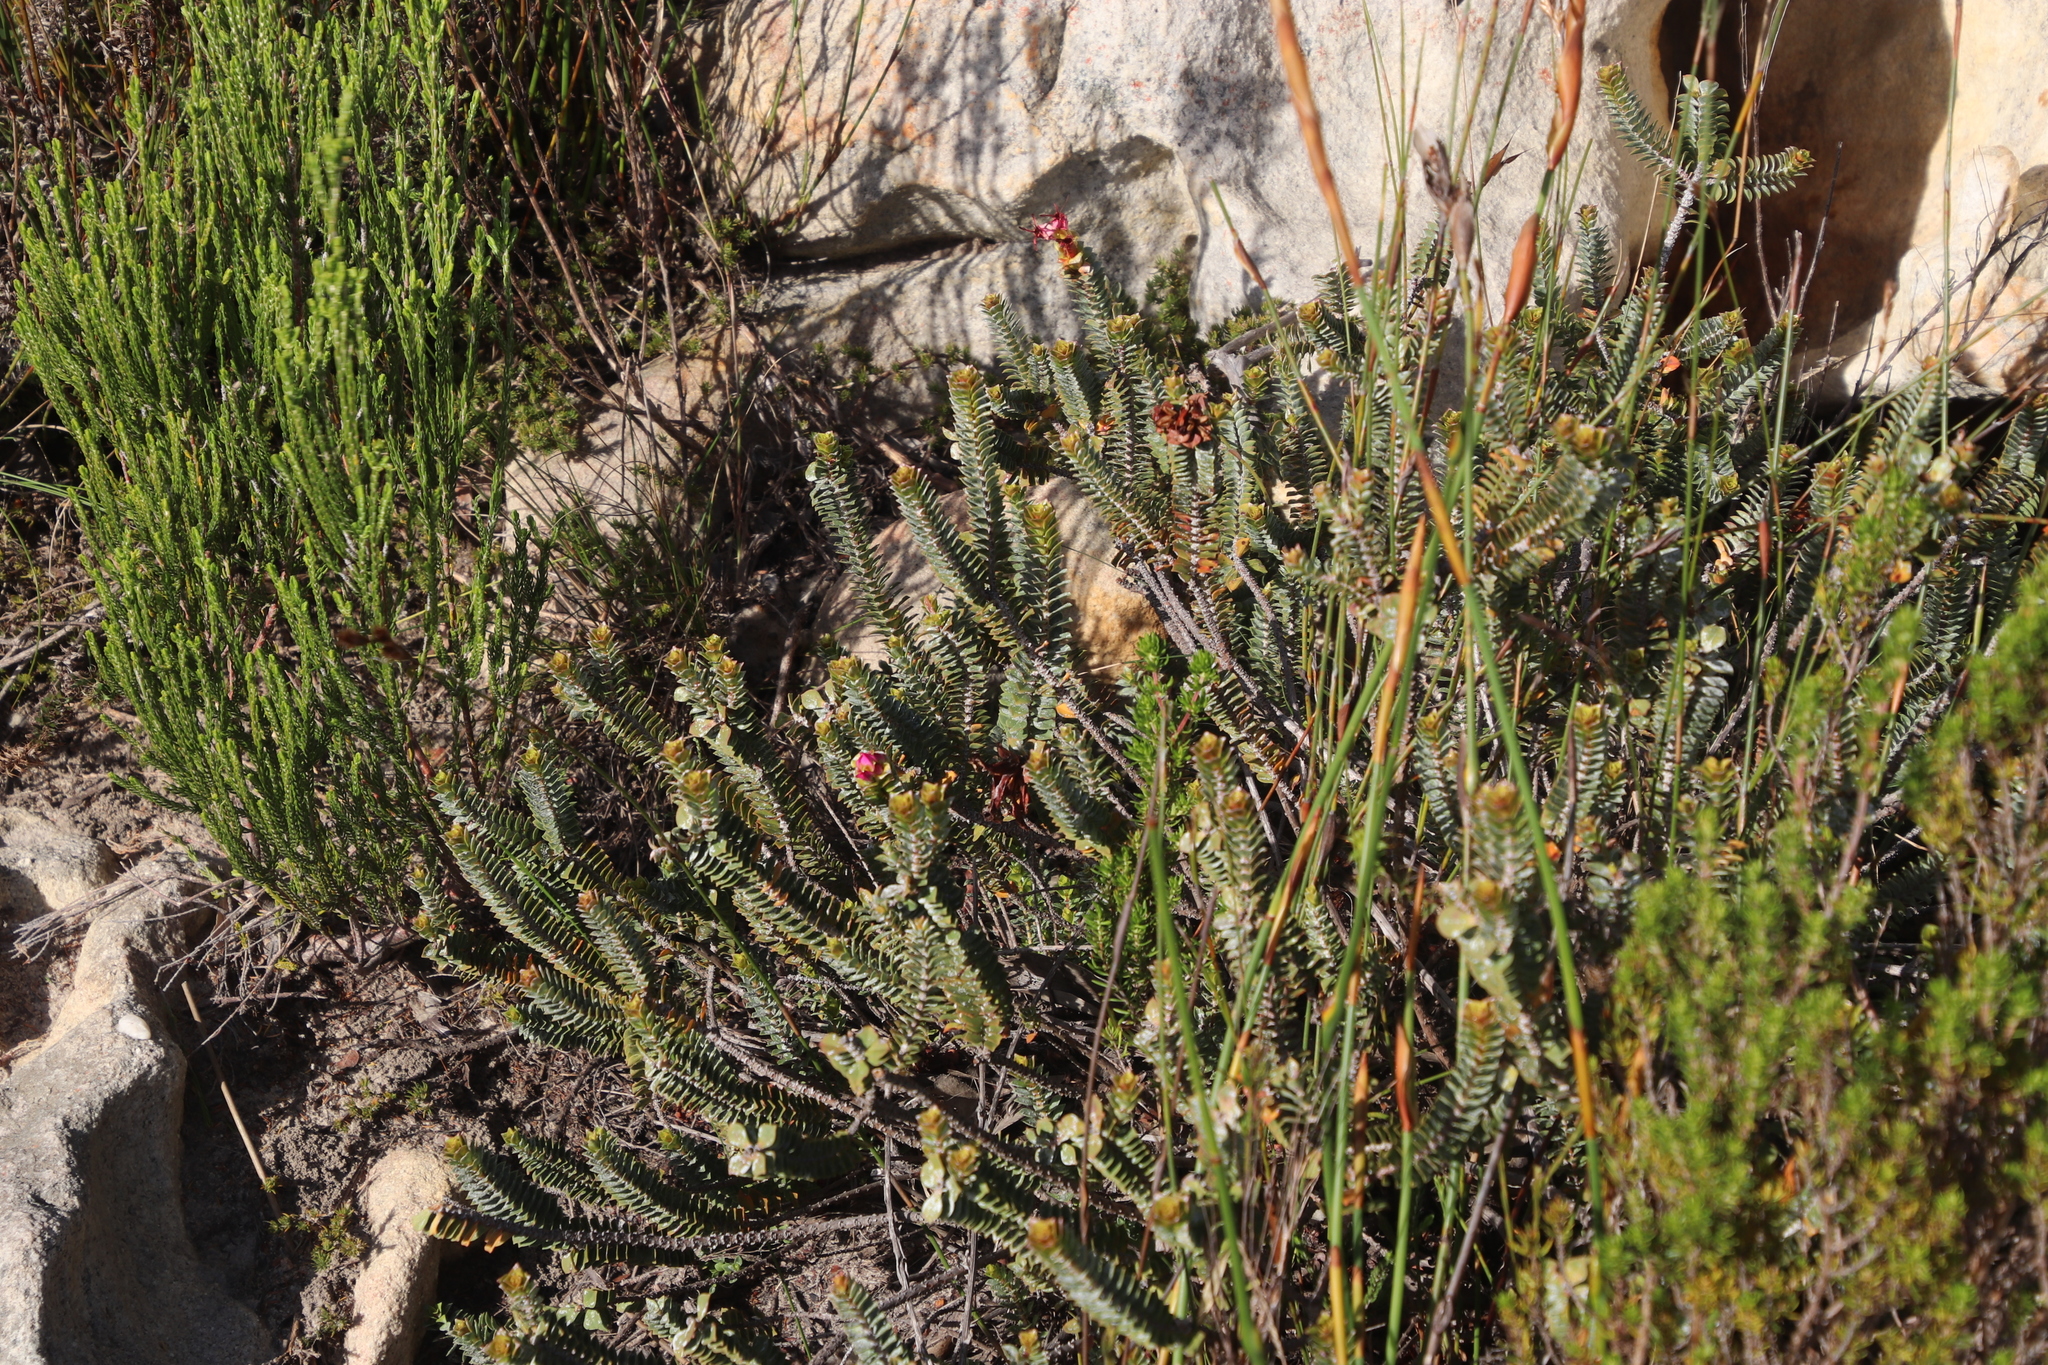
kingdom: Plantae
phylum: Tracheophyta
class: Magnoliopsida
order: Myrtales
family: Penaeaceae
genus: Saltera
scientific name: Saltera sarcocolla
